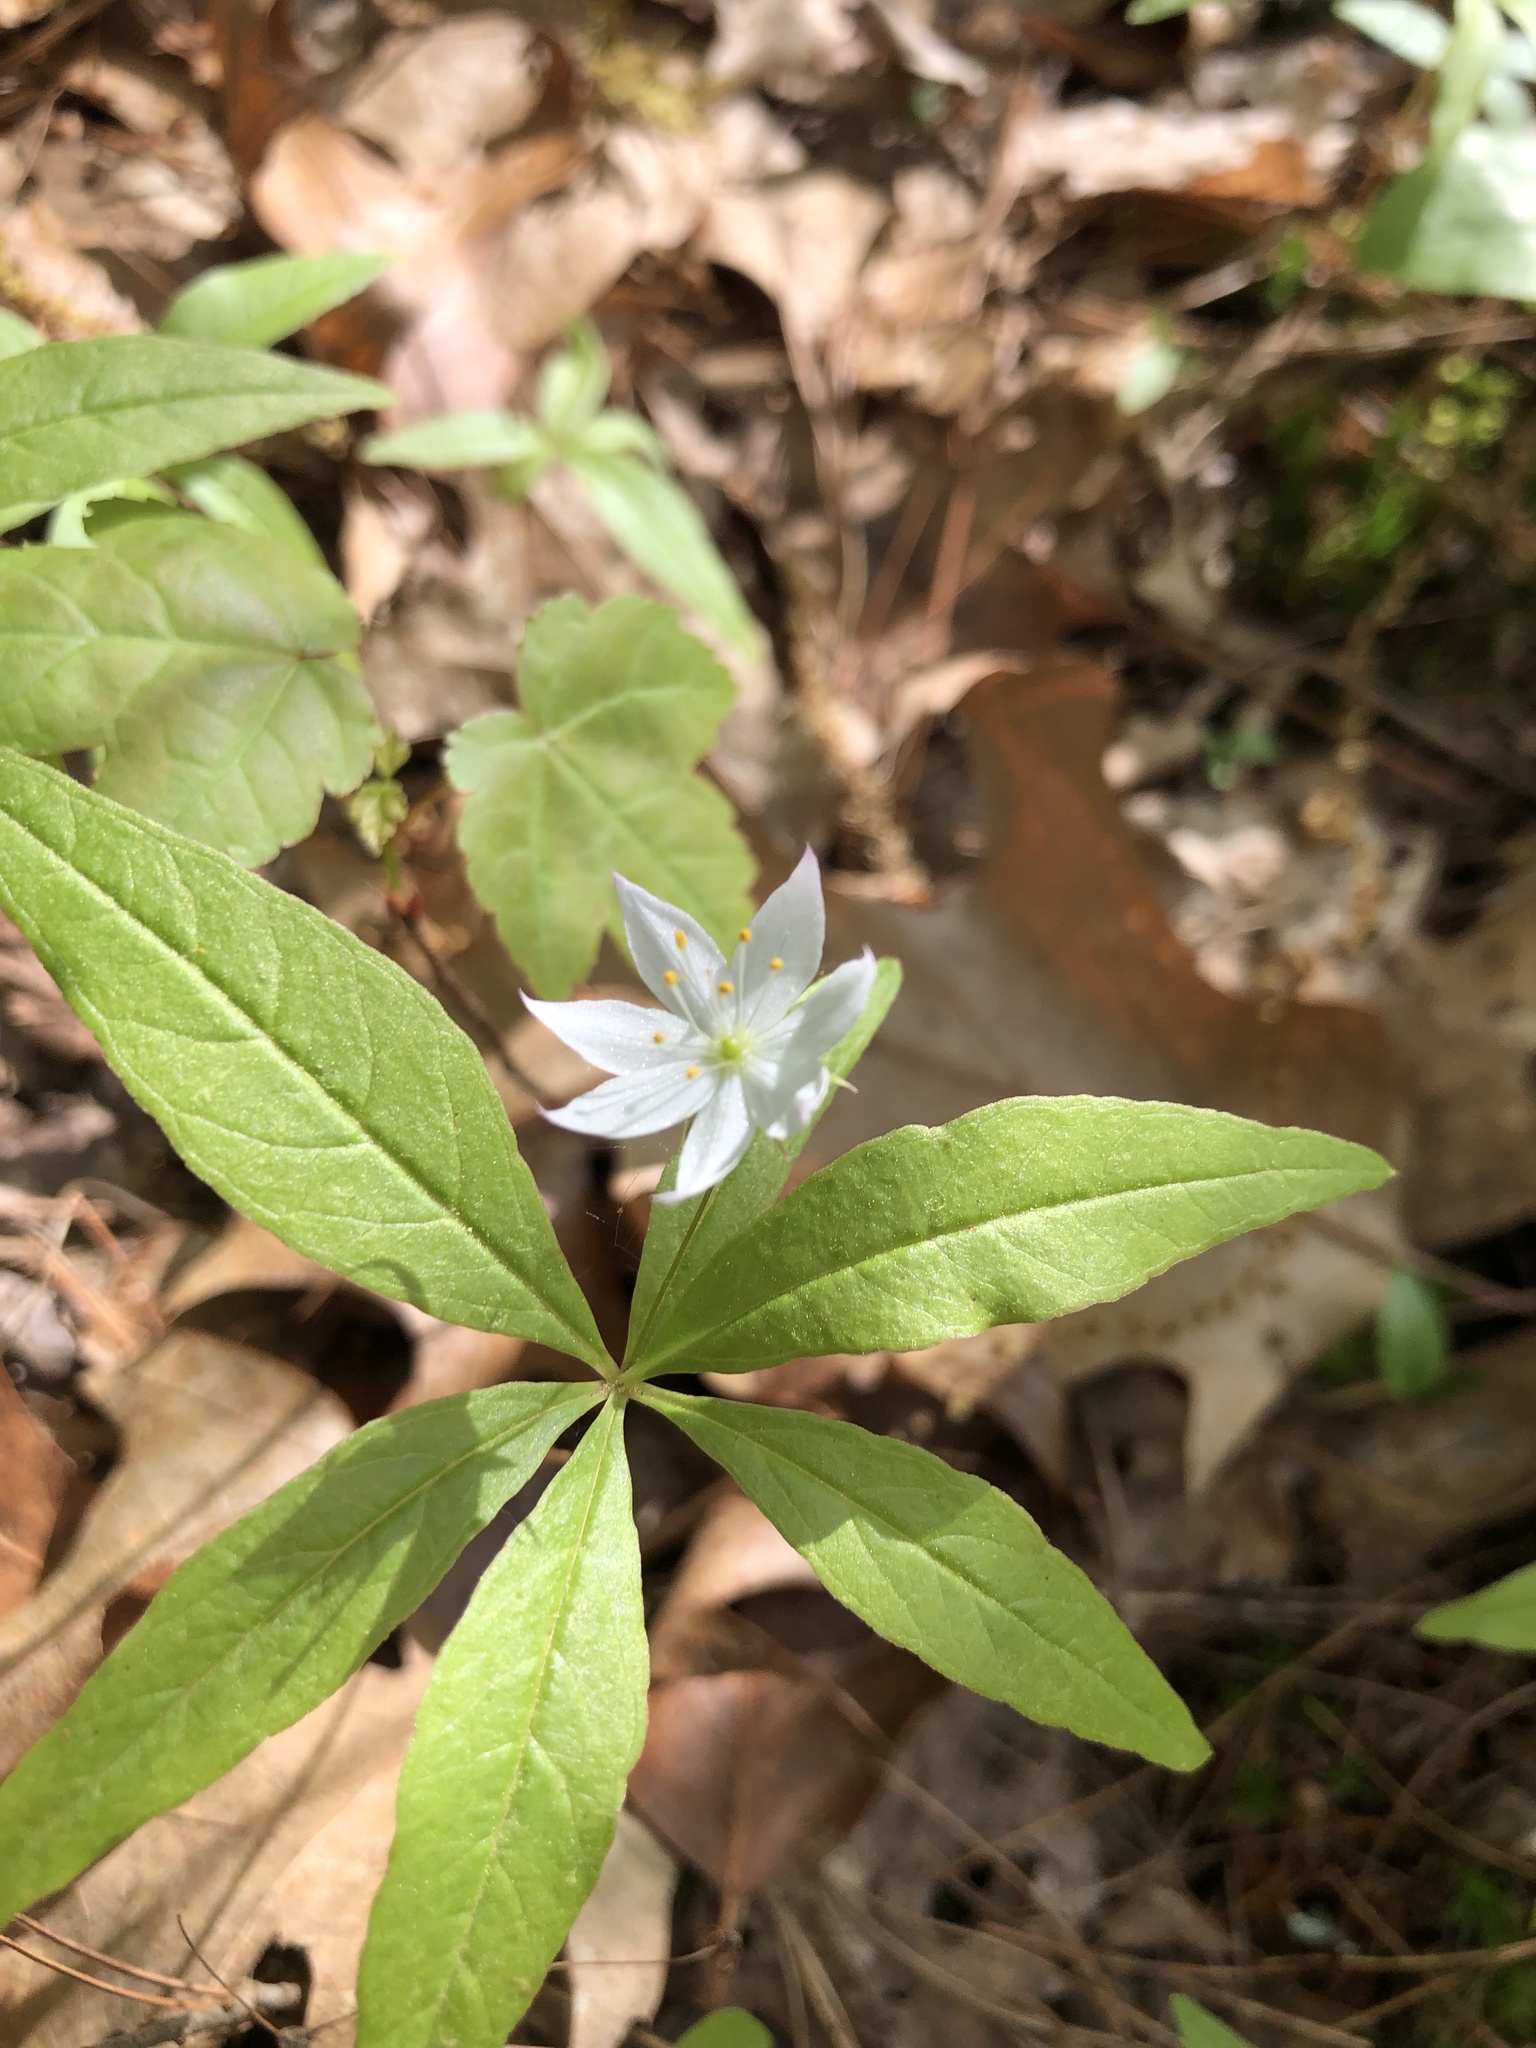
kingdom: Plantae
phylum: Tracheophyta
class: Magnoliopsida
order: Ericales
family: Primulaceae
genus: Lysimachia
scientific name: Lysimachia borealis
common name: American starflower
